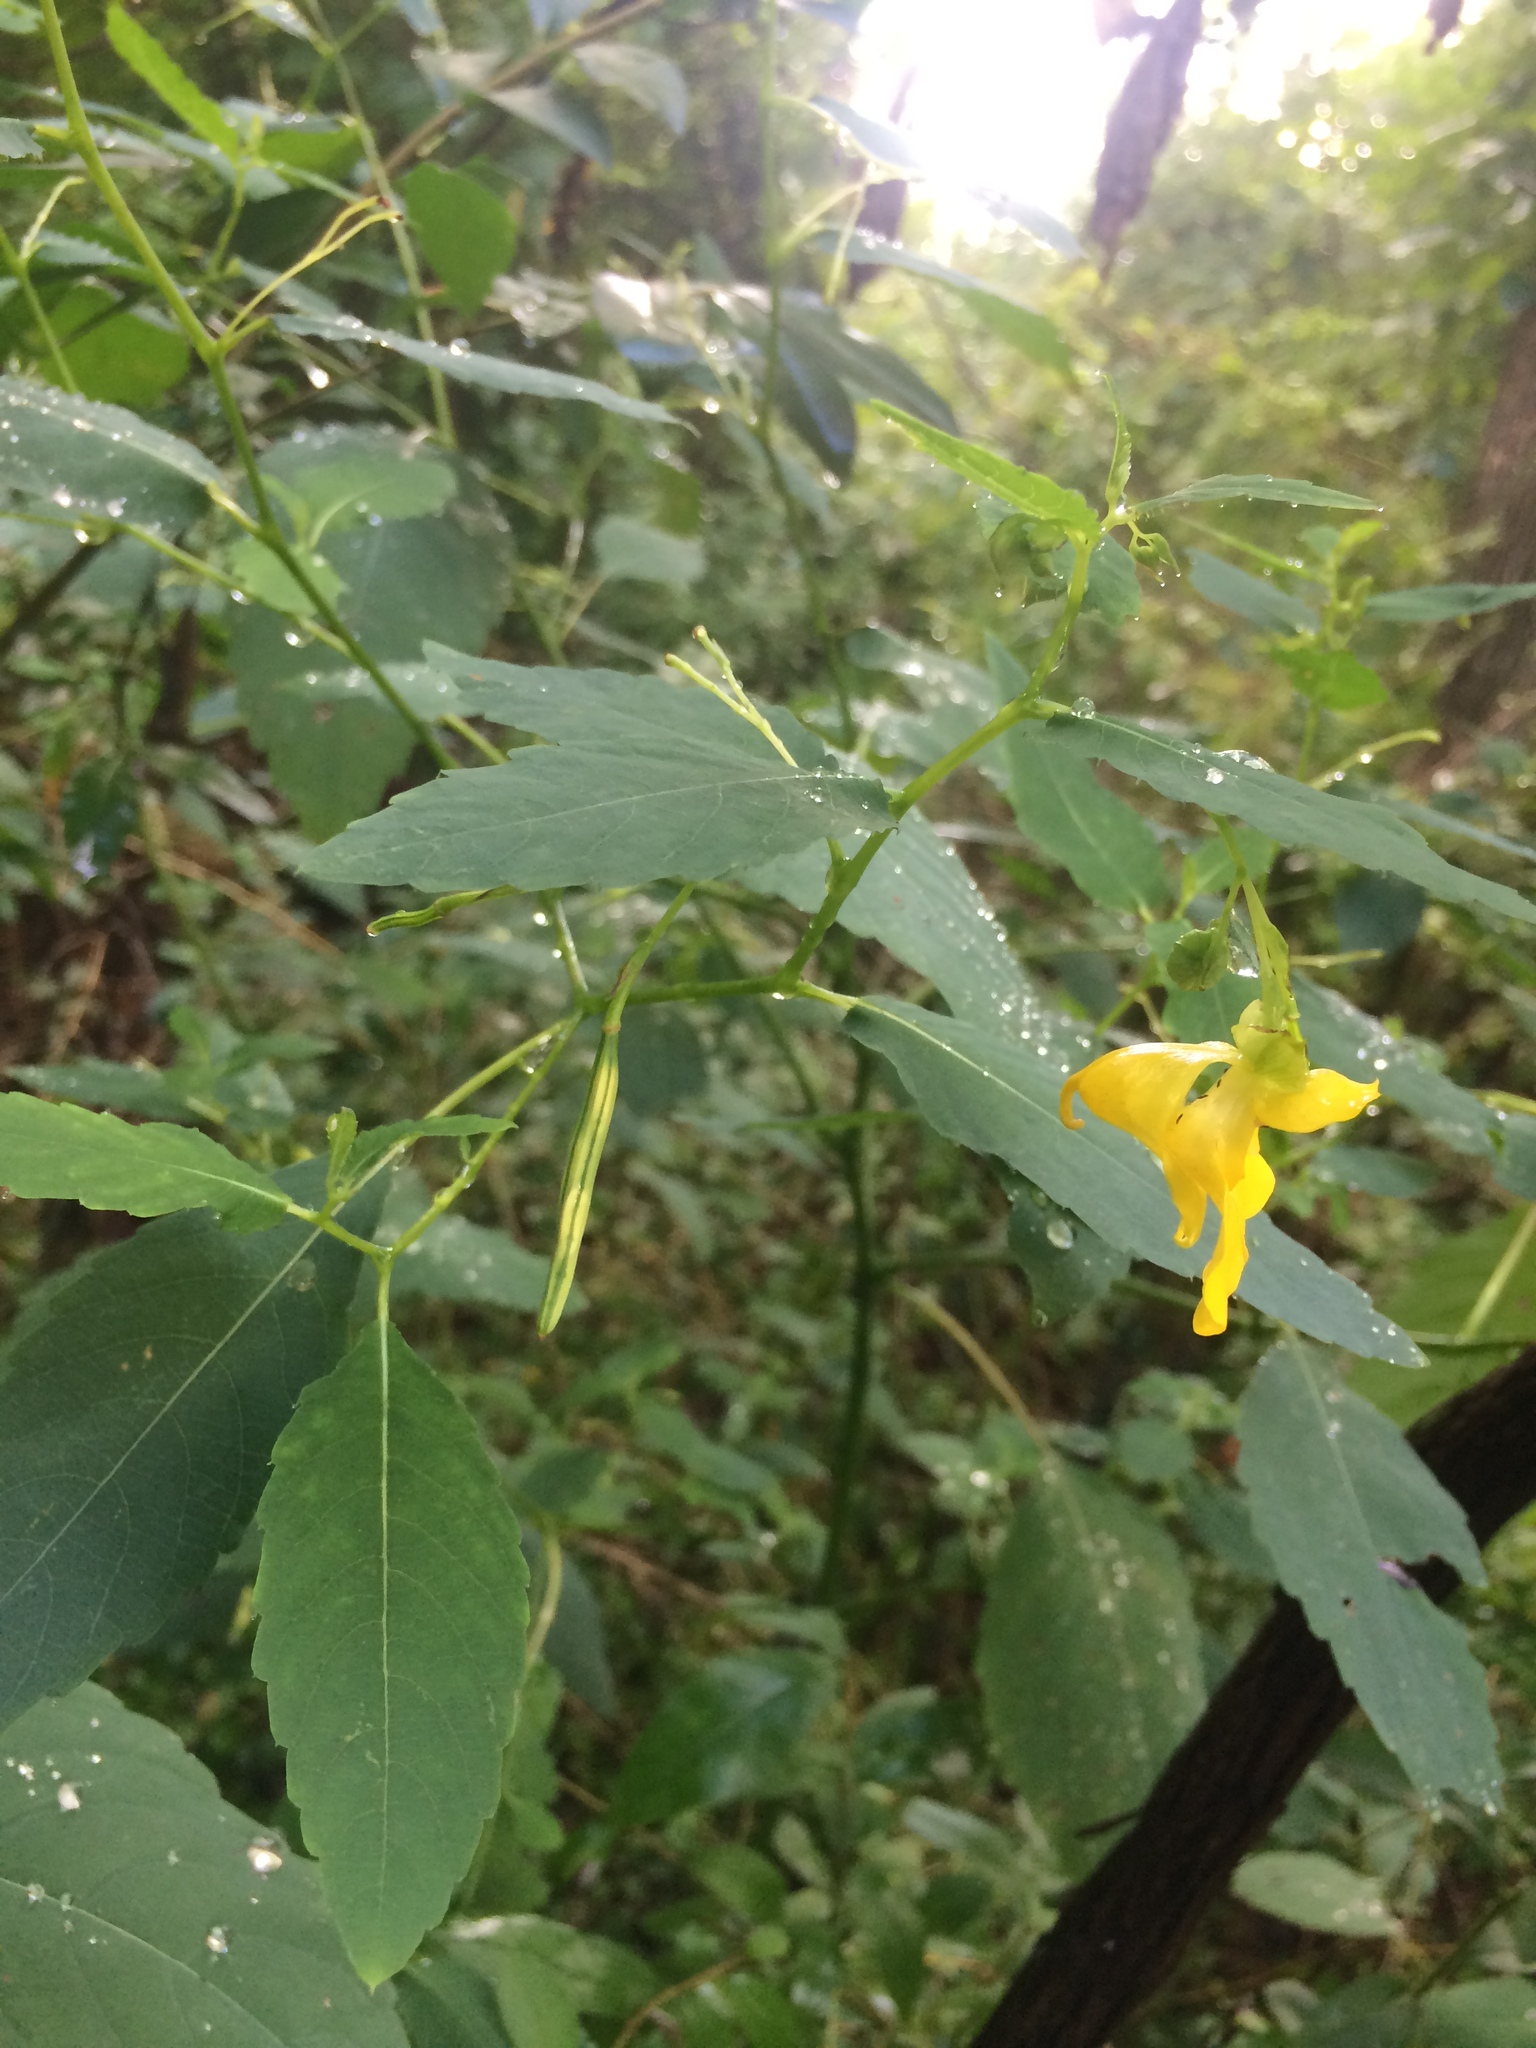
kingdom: Plantae
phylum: Tracheophyta
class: Magnoliopsida
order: Ericales
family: Balsaminaceae
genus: Impatiens
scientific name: Impatiens pallida
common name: Pale snapweed
